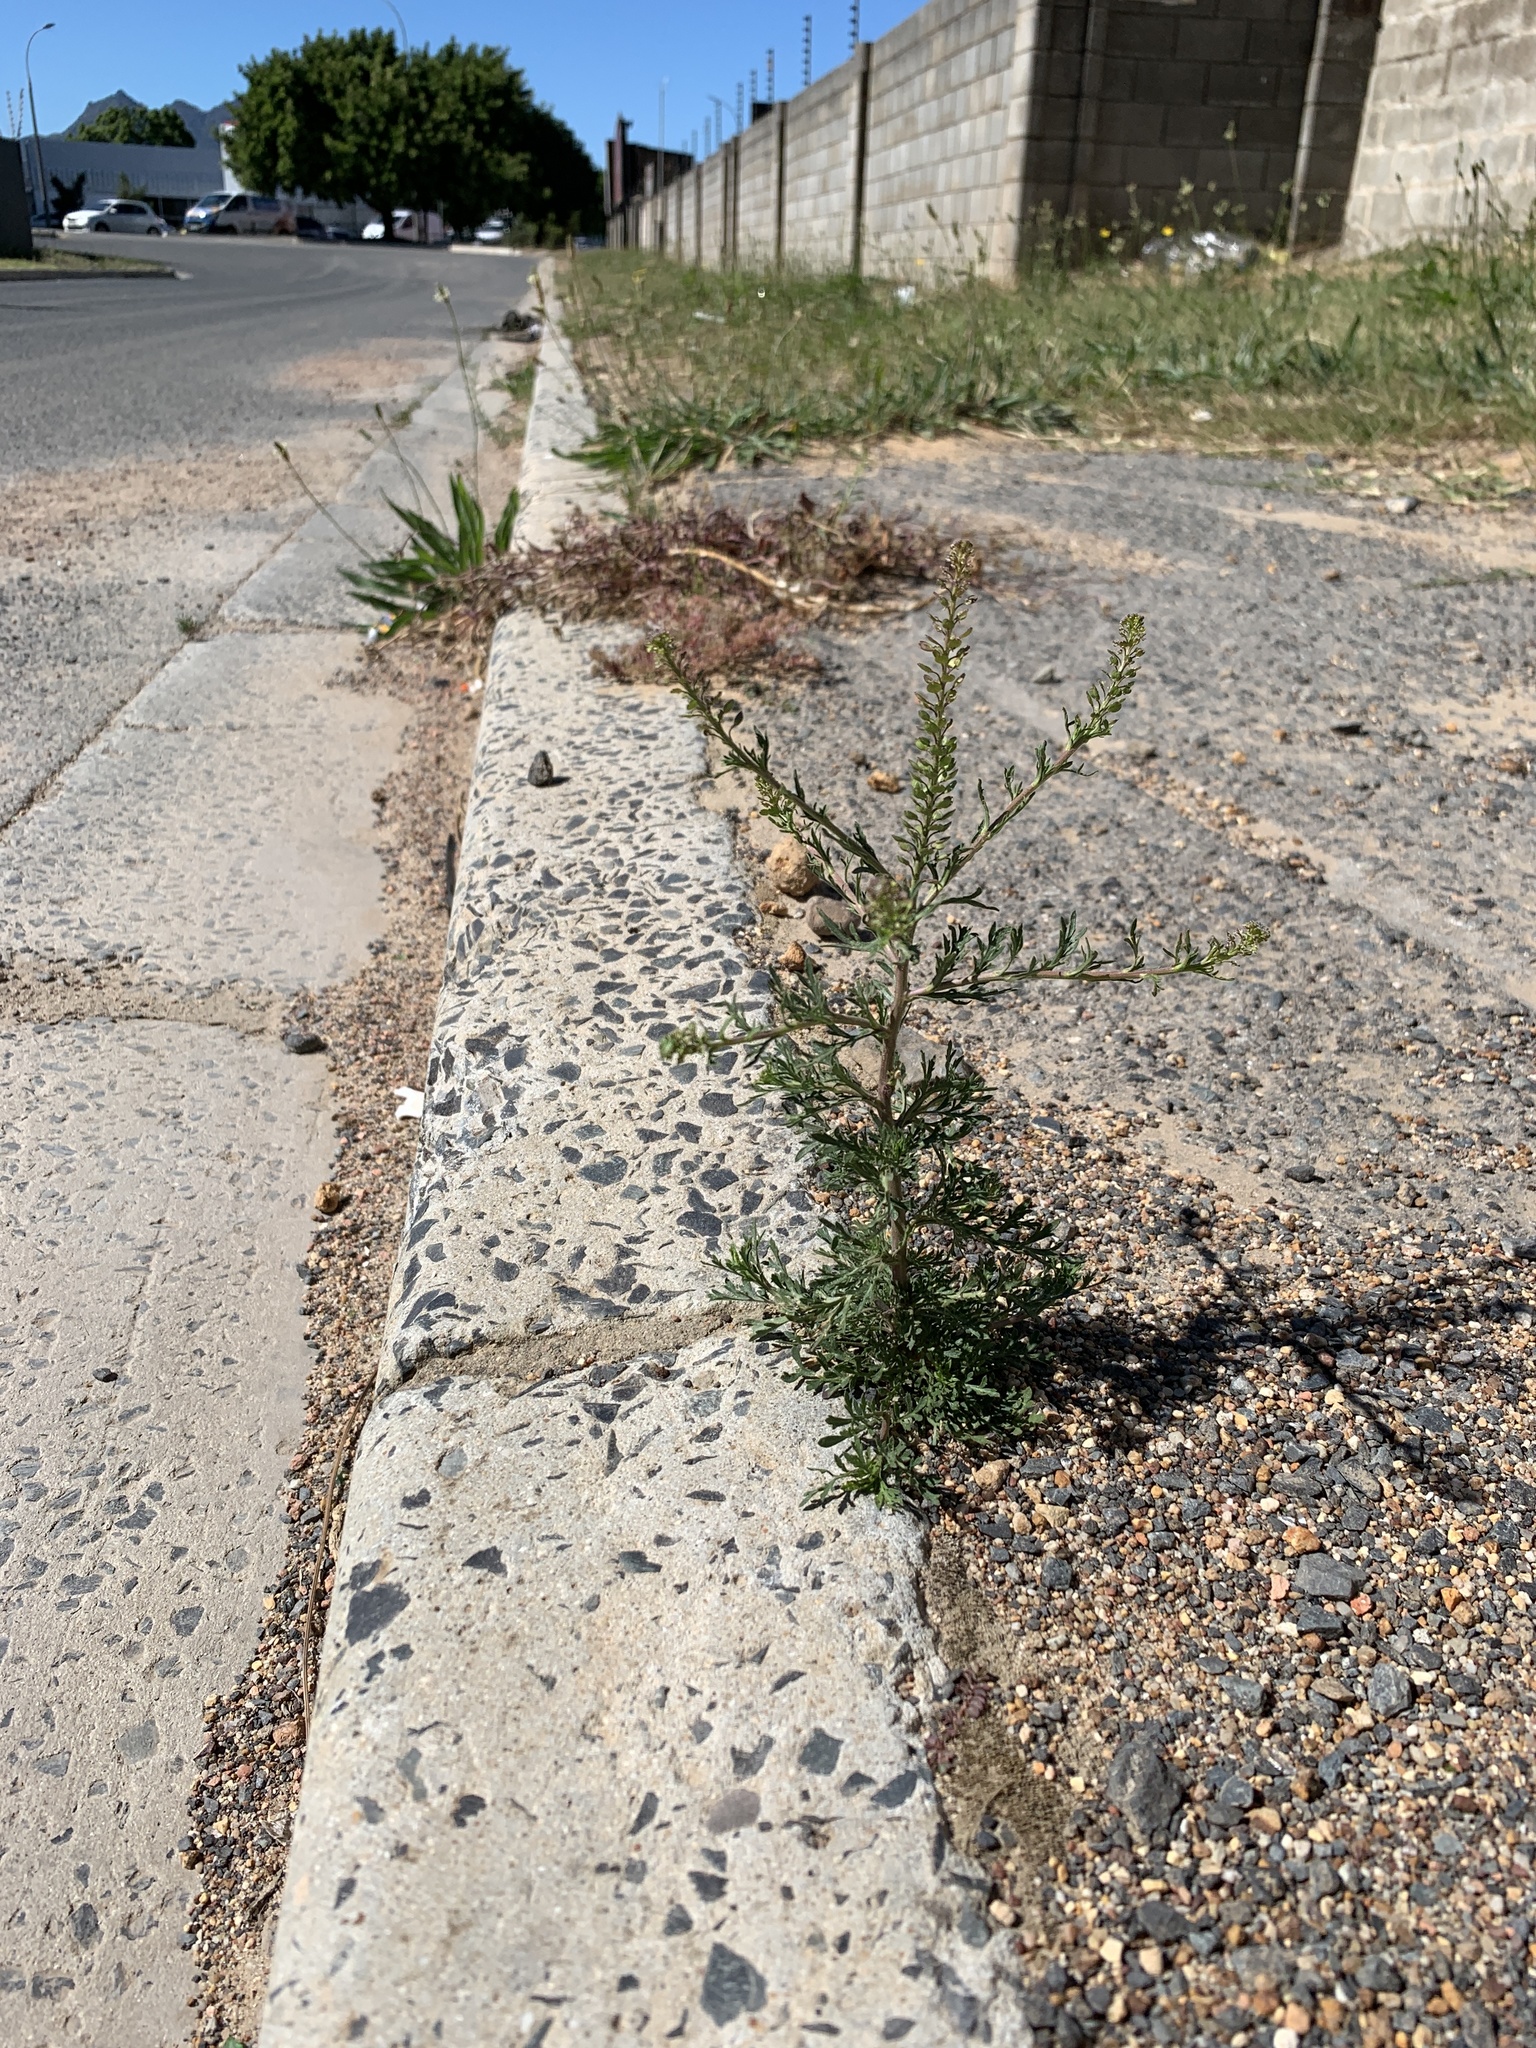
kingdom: Plantae
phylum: Tracheophyta
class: Magnoliopsida
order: Brassicales
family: Brassicaceae
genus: Lepidium
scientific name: Lepidium bonariense
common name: Argentine pepperwort
